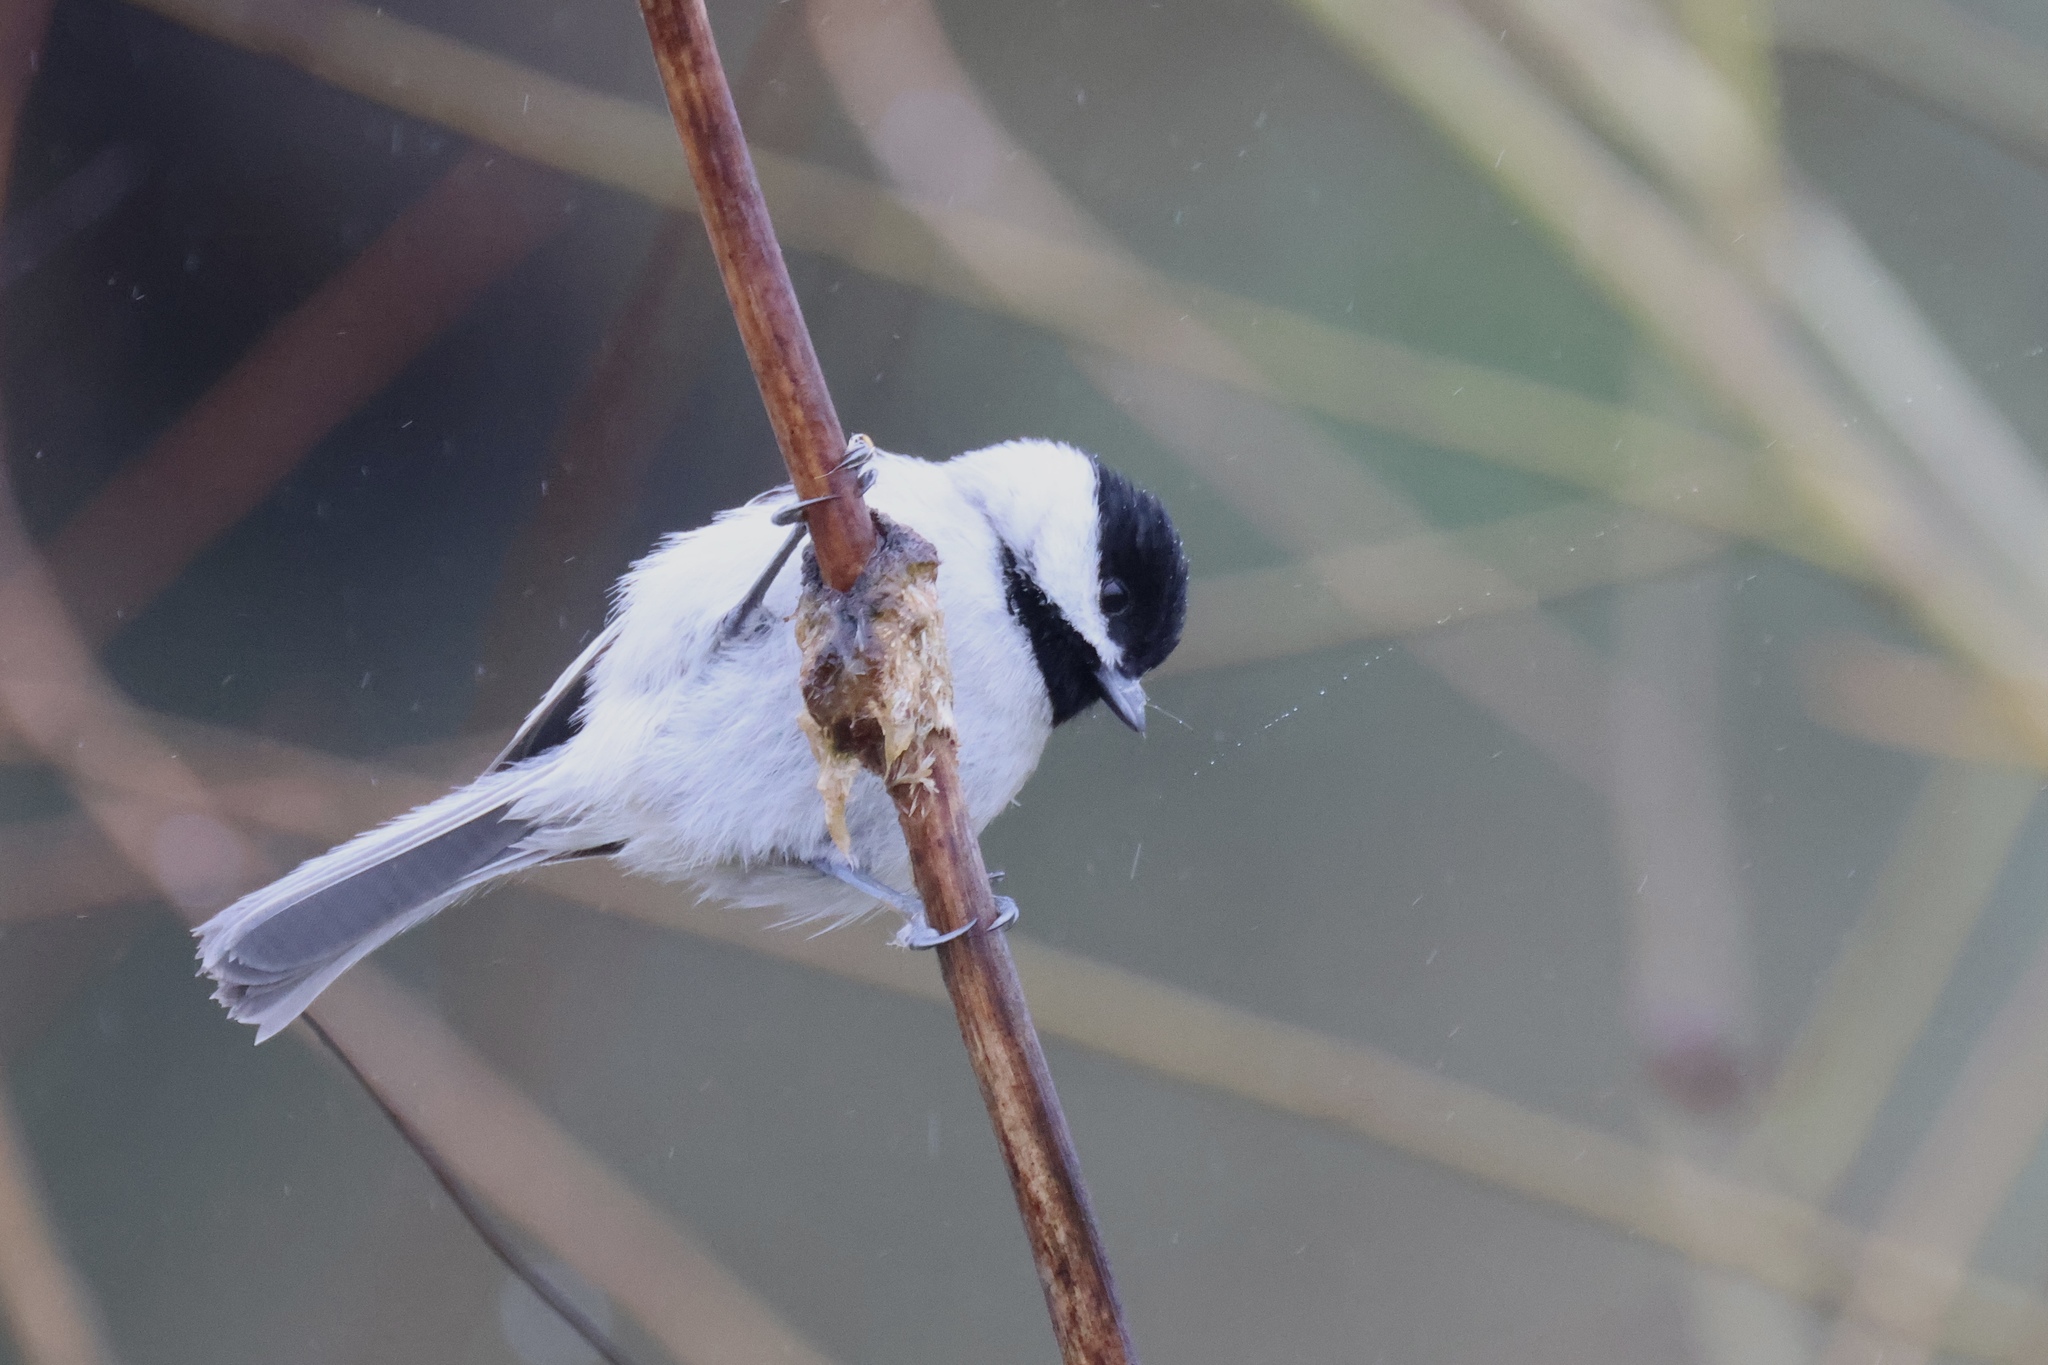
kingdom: Animalia
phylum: Chordata
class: Aves
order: Passeriformes
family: Paridae
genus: Poecile
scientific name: Poecile carolinensis
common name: Carolina chickadee
